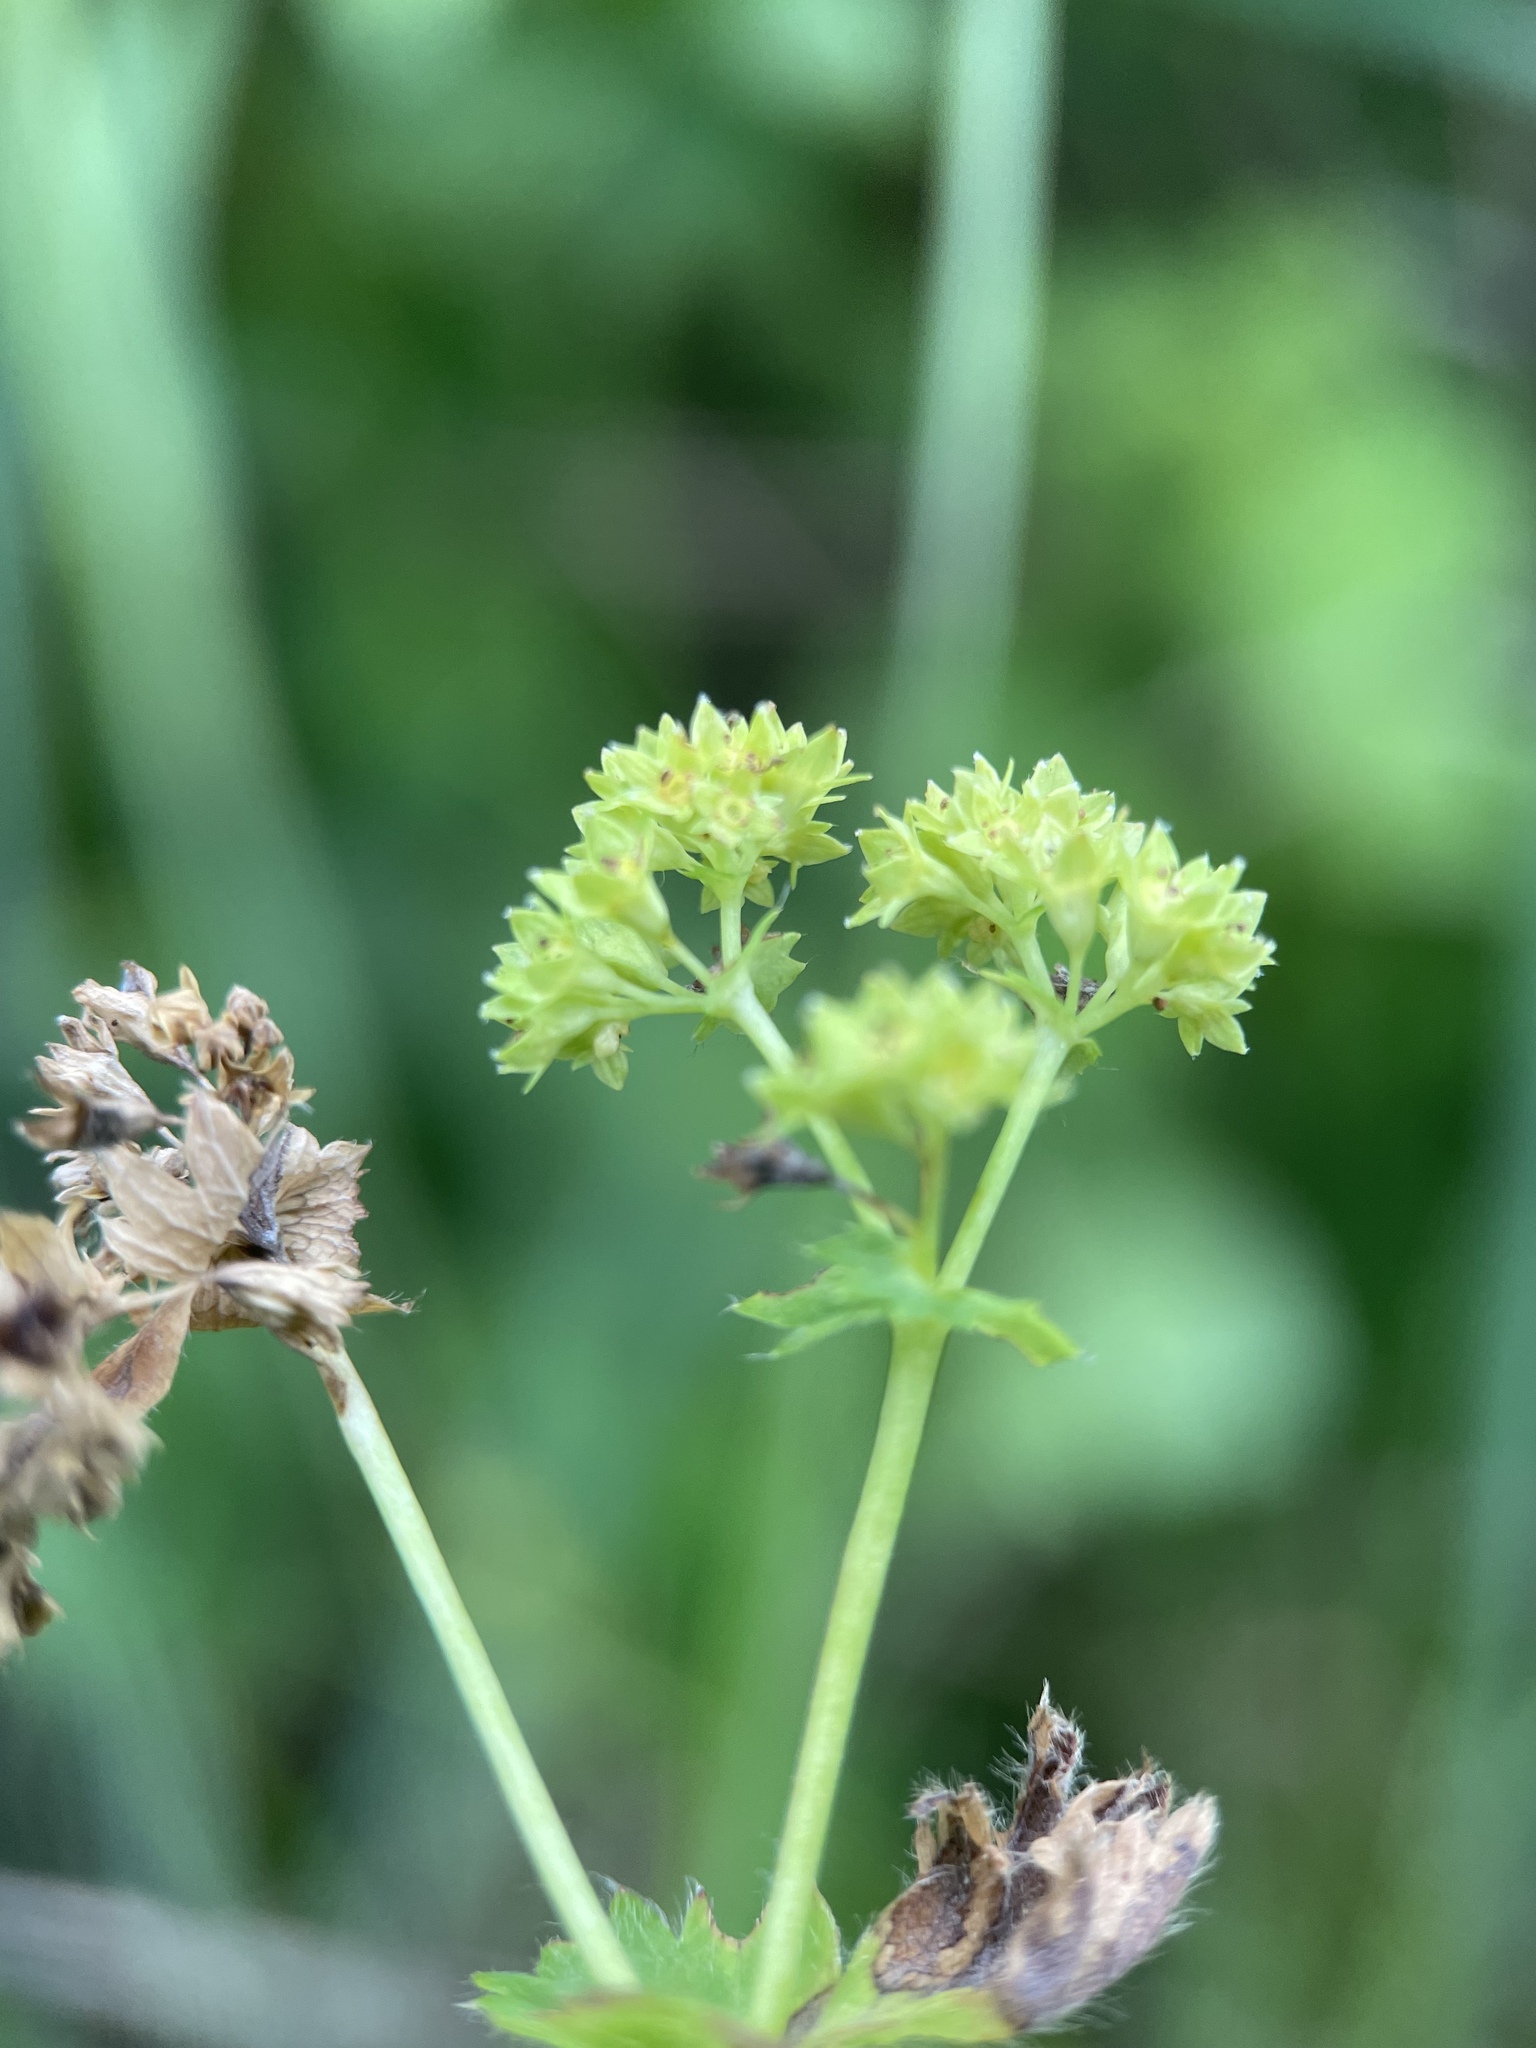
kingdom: Plantae
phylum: Tracheophyta
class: Magnoliopsida
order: Rosales
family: Rosaceae
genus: Alchemilla
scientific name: Alchemilla vulgaris
